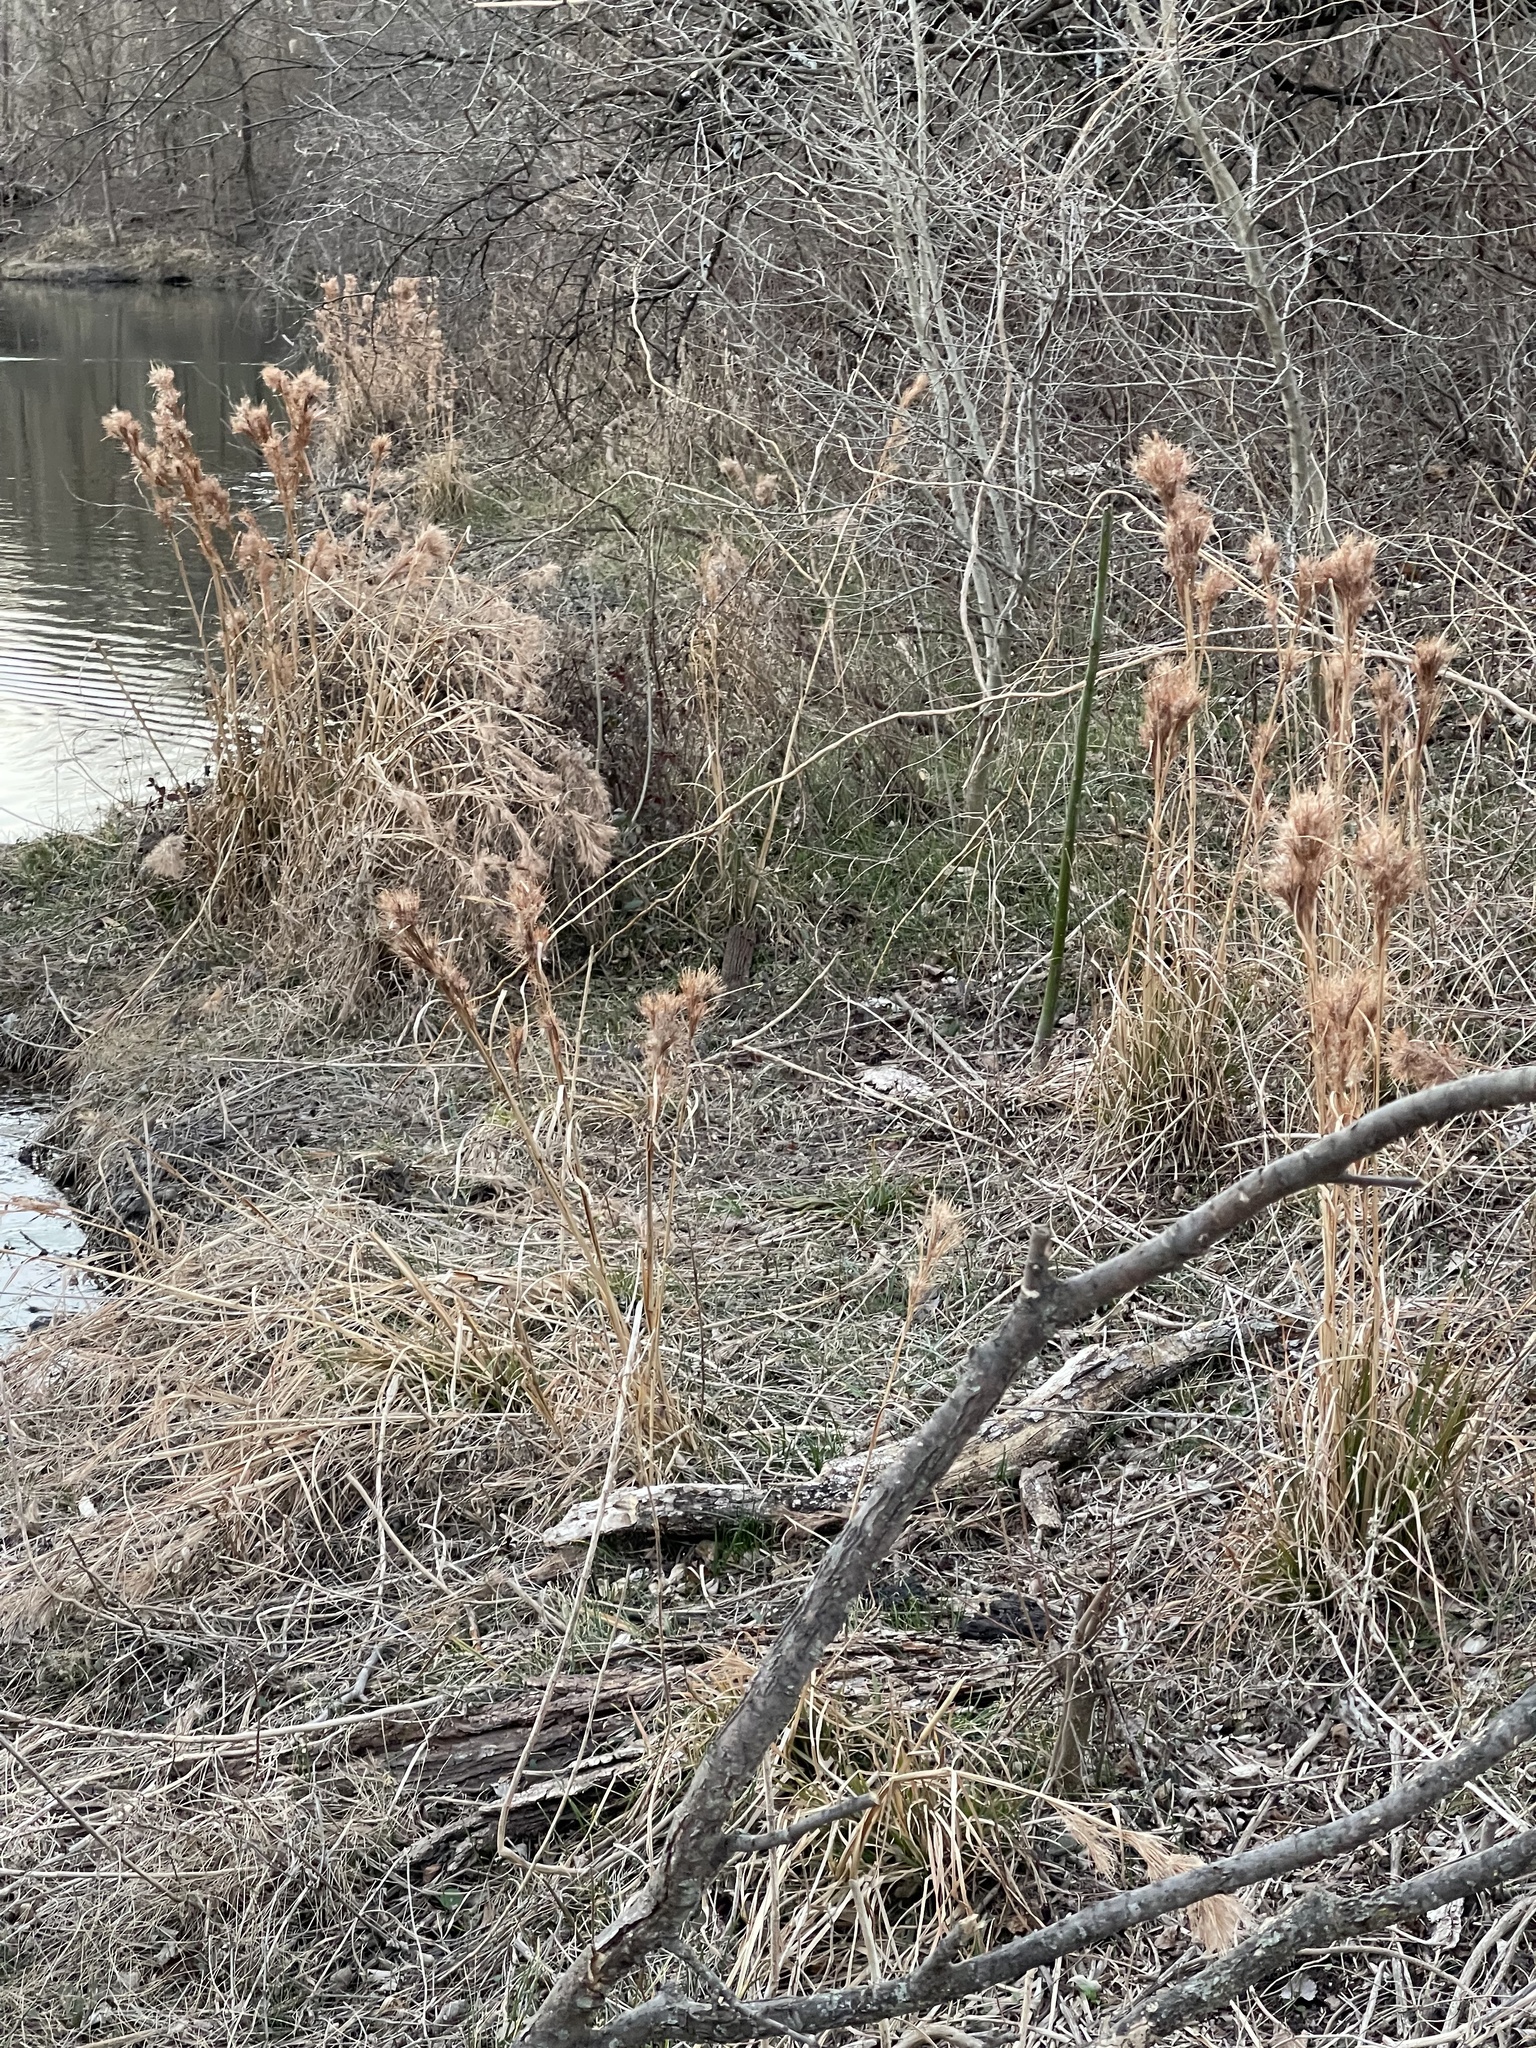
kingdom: Plantae
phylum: Tracheophyta
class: Liliopsida
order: Poales
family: Poaceae
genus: Andropogon
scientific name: Andropogon tenuispatheus
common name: Bushy bluestem
